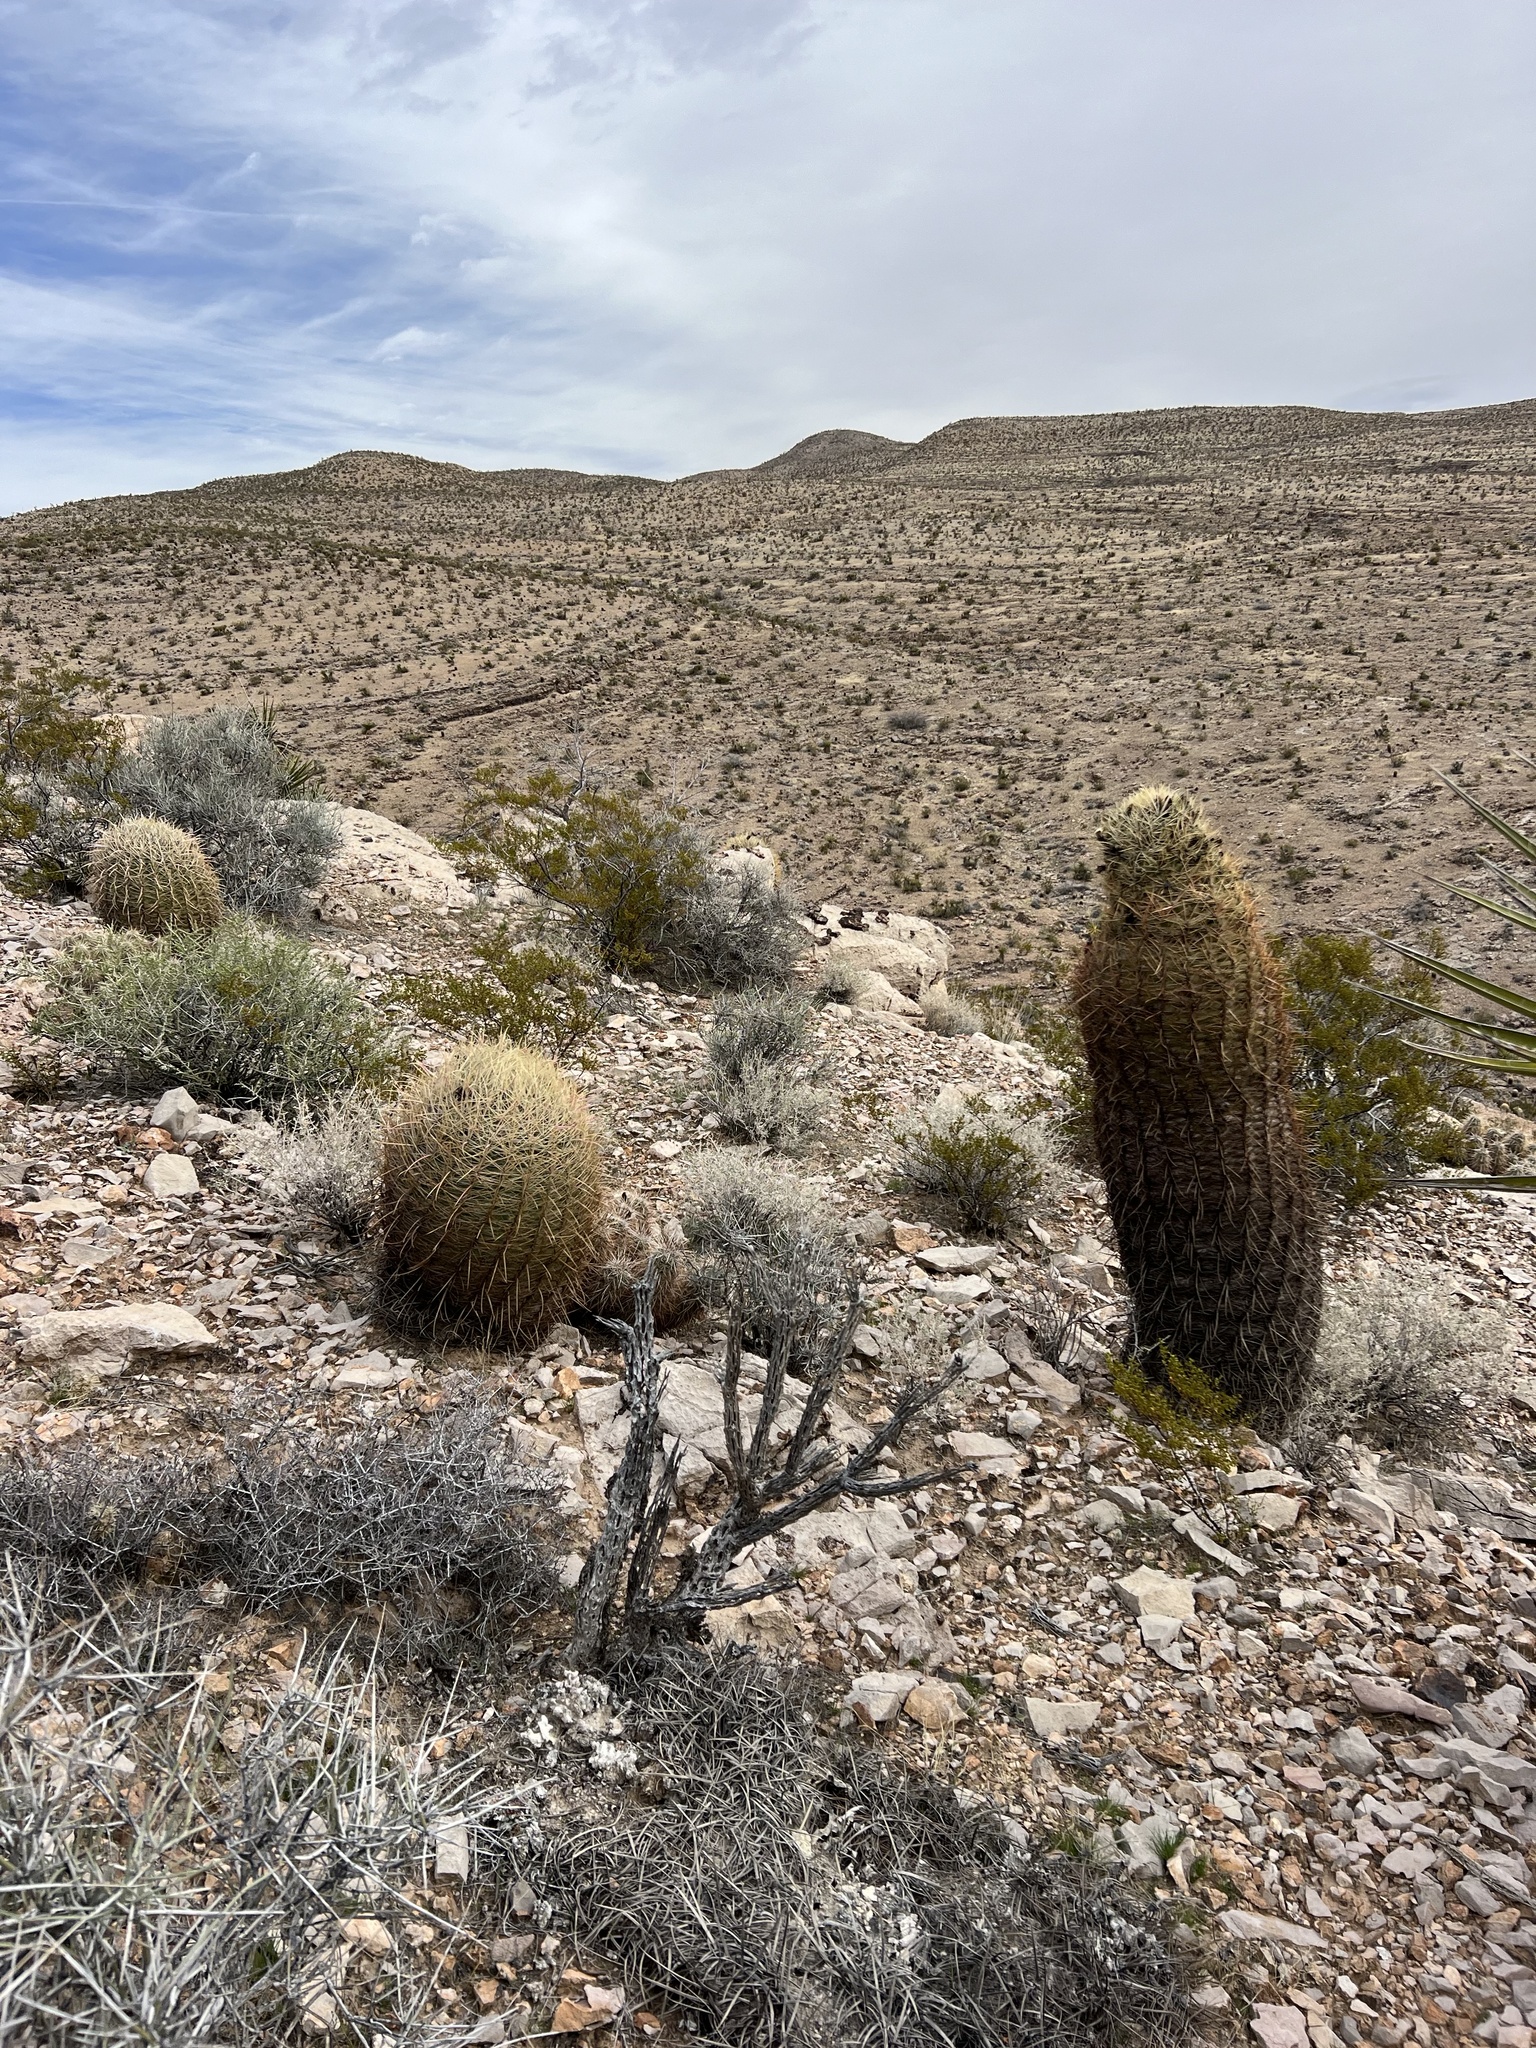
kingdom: Plantae
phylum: Tracheophyta
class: Magnoliopsida
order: Caryophyllales
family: Cactaceae
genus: Ferocactus
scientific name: Ferocactus cylindraceus
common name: California barrel cactus
